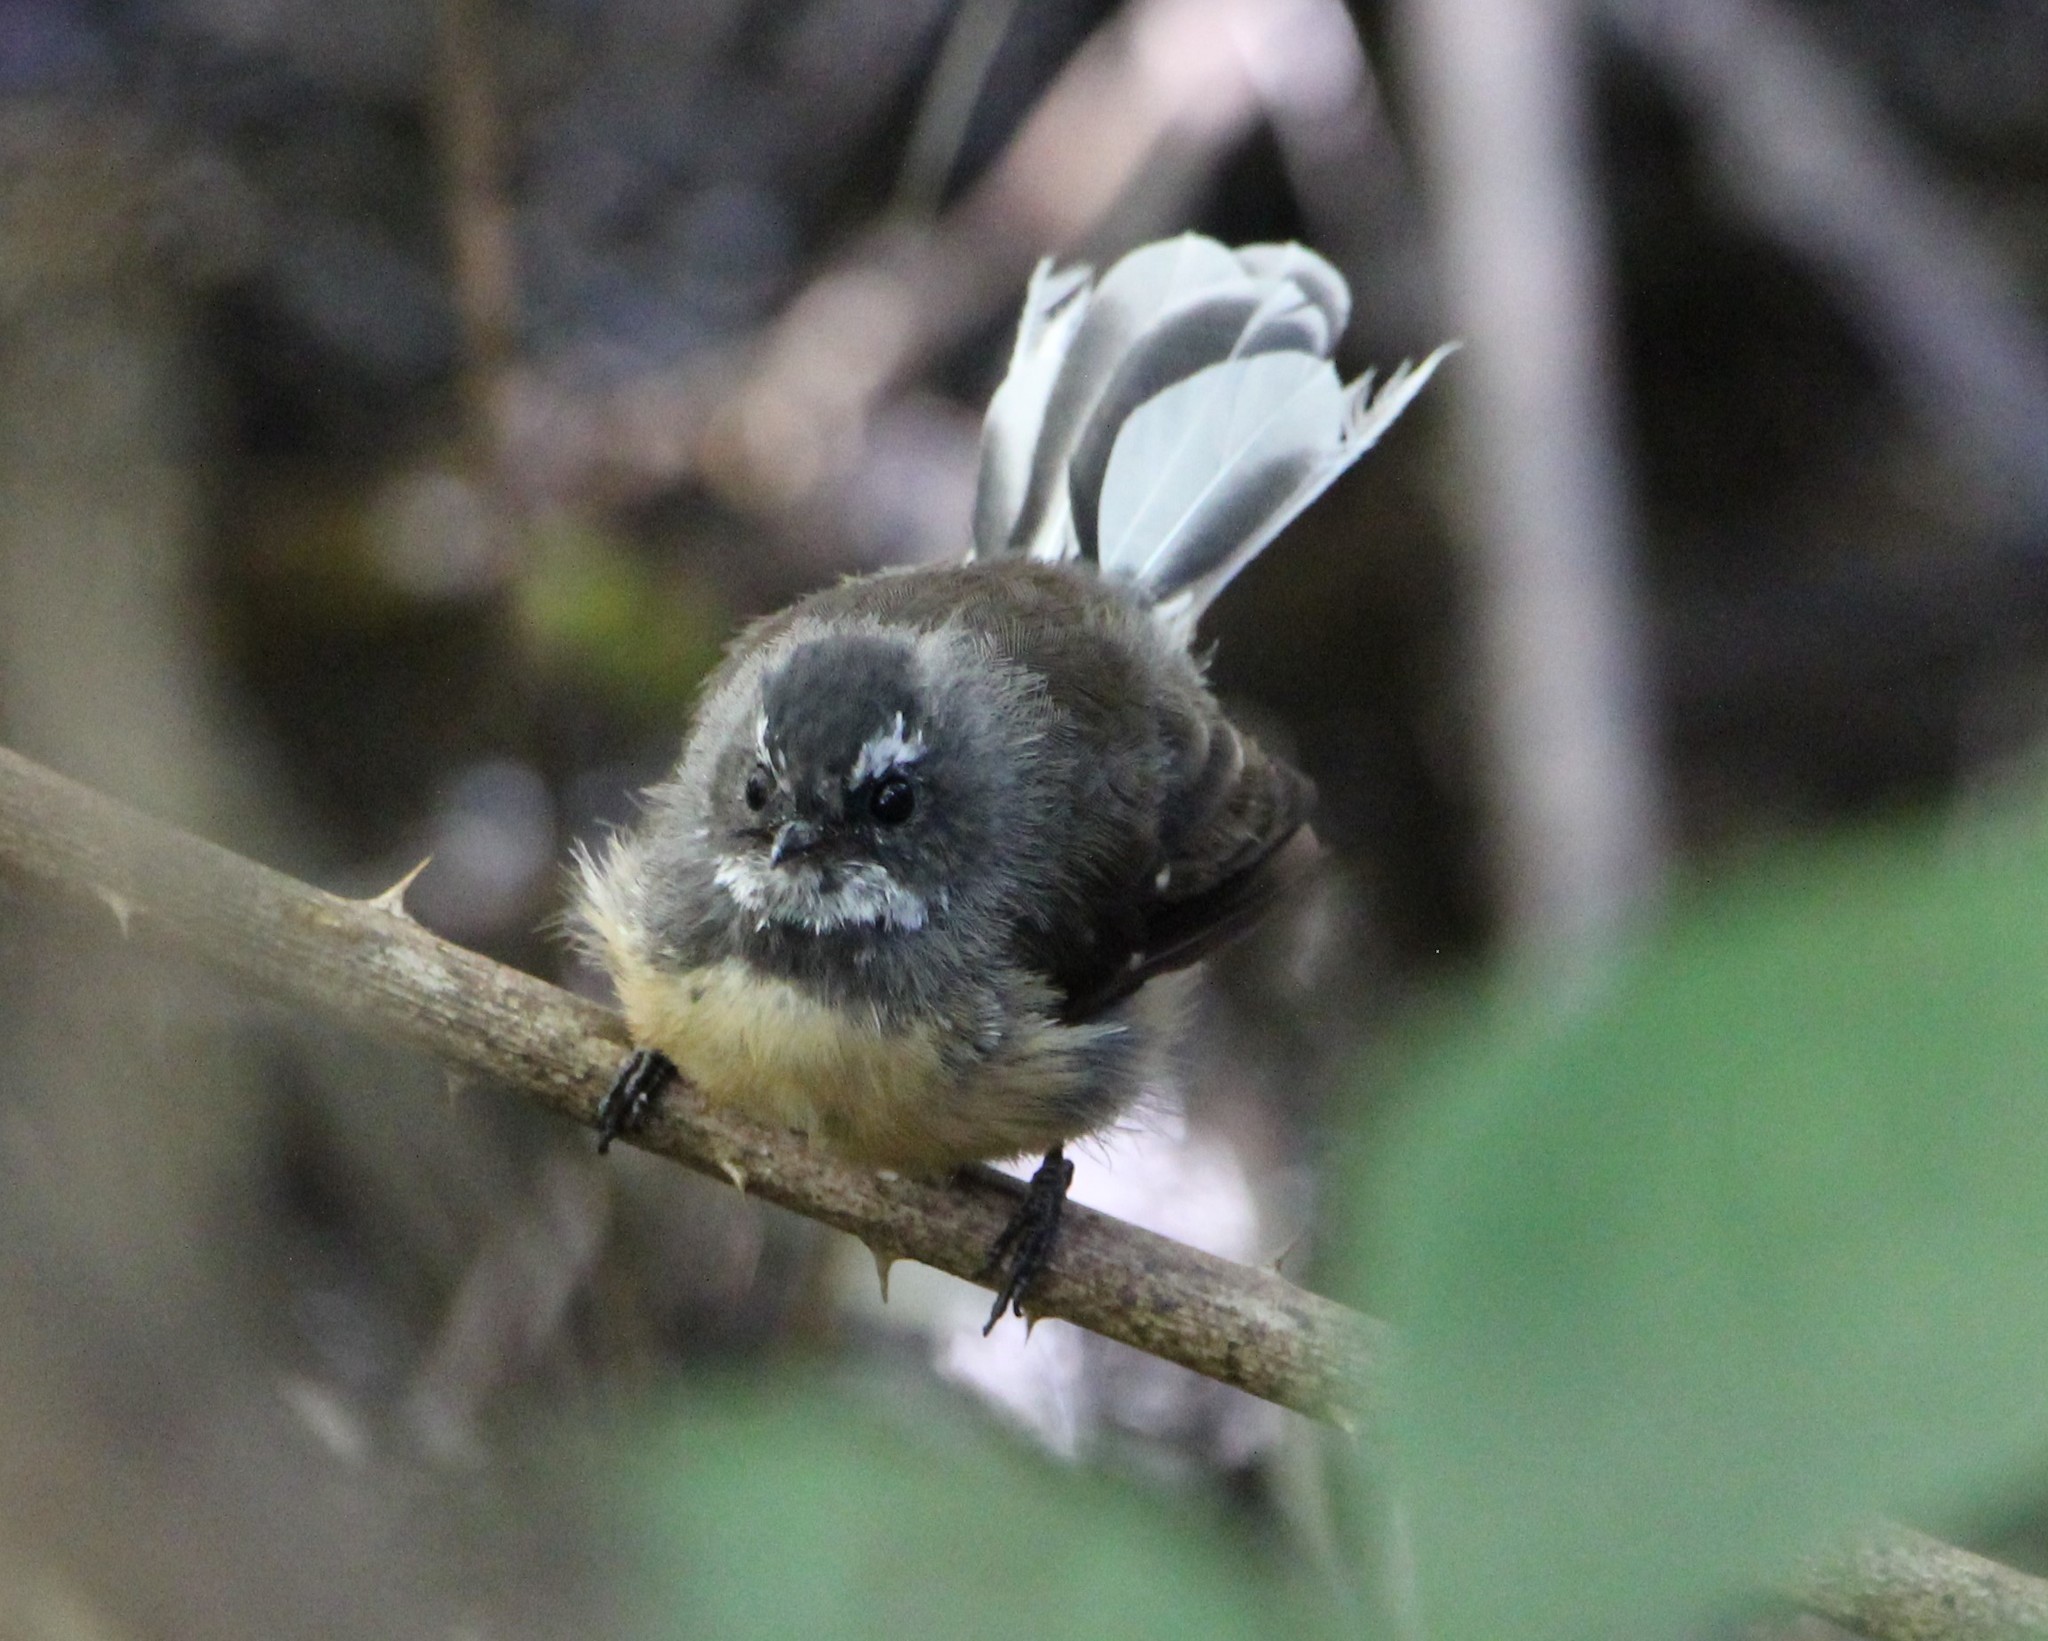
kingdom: Animalia
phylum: Chordata
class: Aves
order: Passeriformes
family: Rhipiduridae
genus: Rhipidura
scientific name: Rhipidura fuliginosa
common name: New zealand fantail
